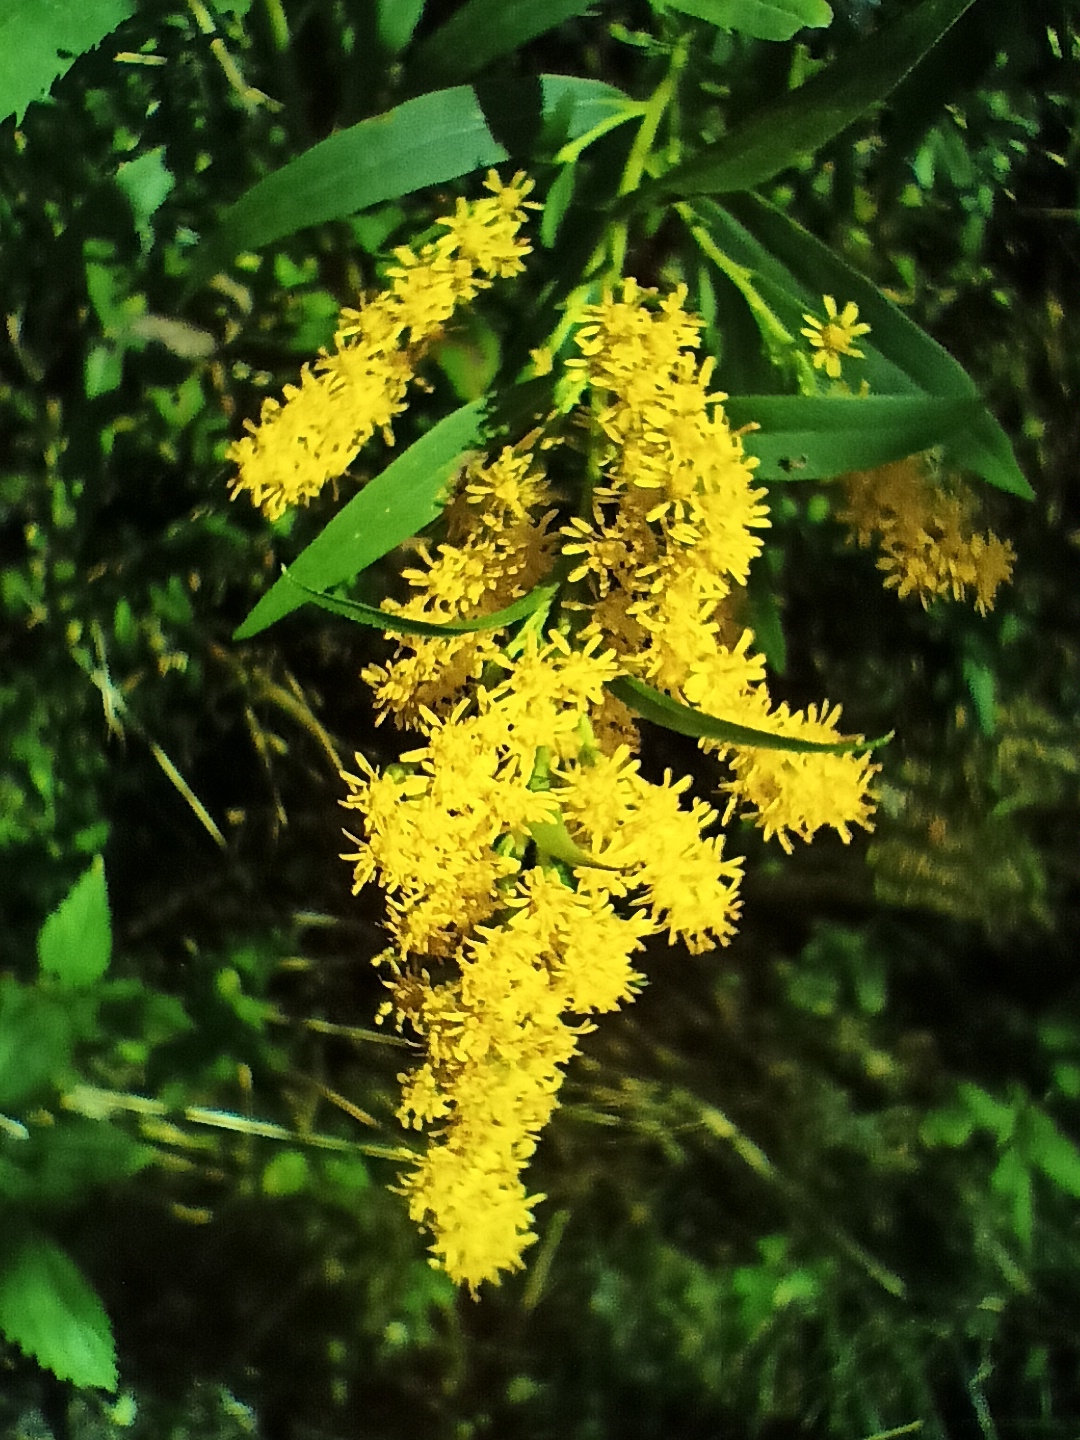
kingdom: Plantae
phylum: Tracheophyta
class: Magnoliopsida
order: Asterales
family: Asteraceae
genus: Solidago
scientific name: Solidago gigantea
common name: Giant goldenrod
